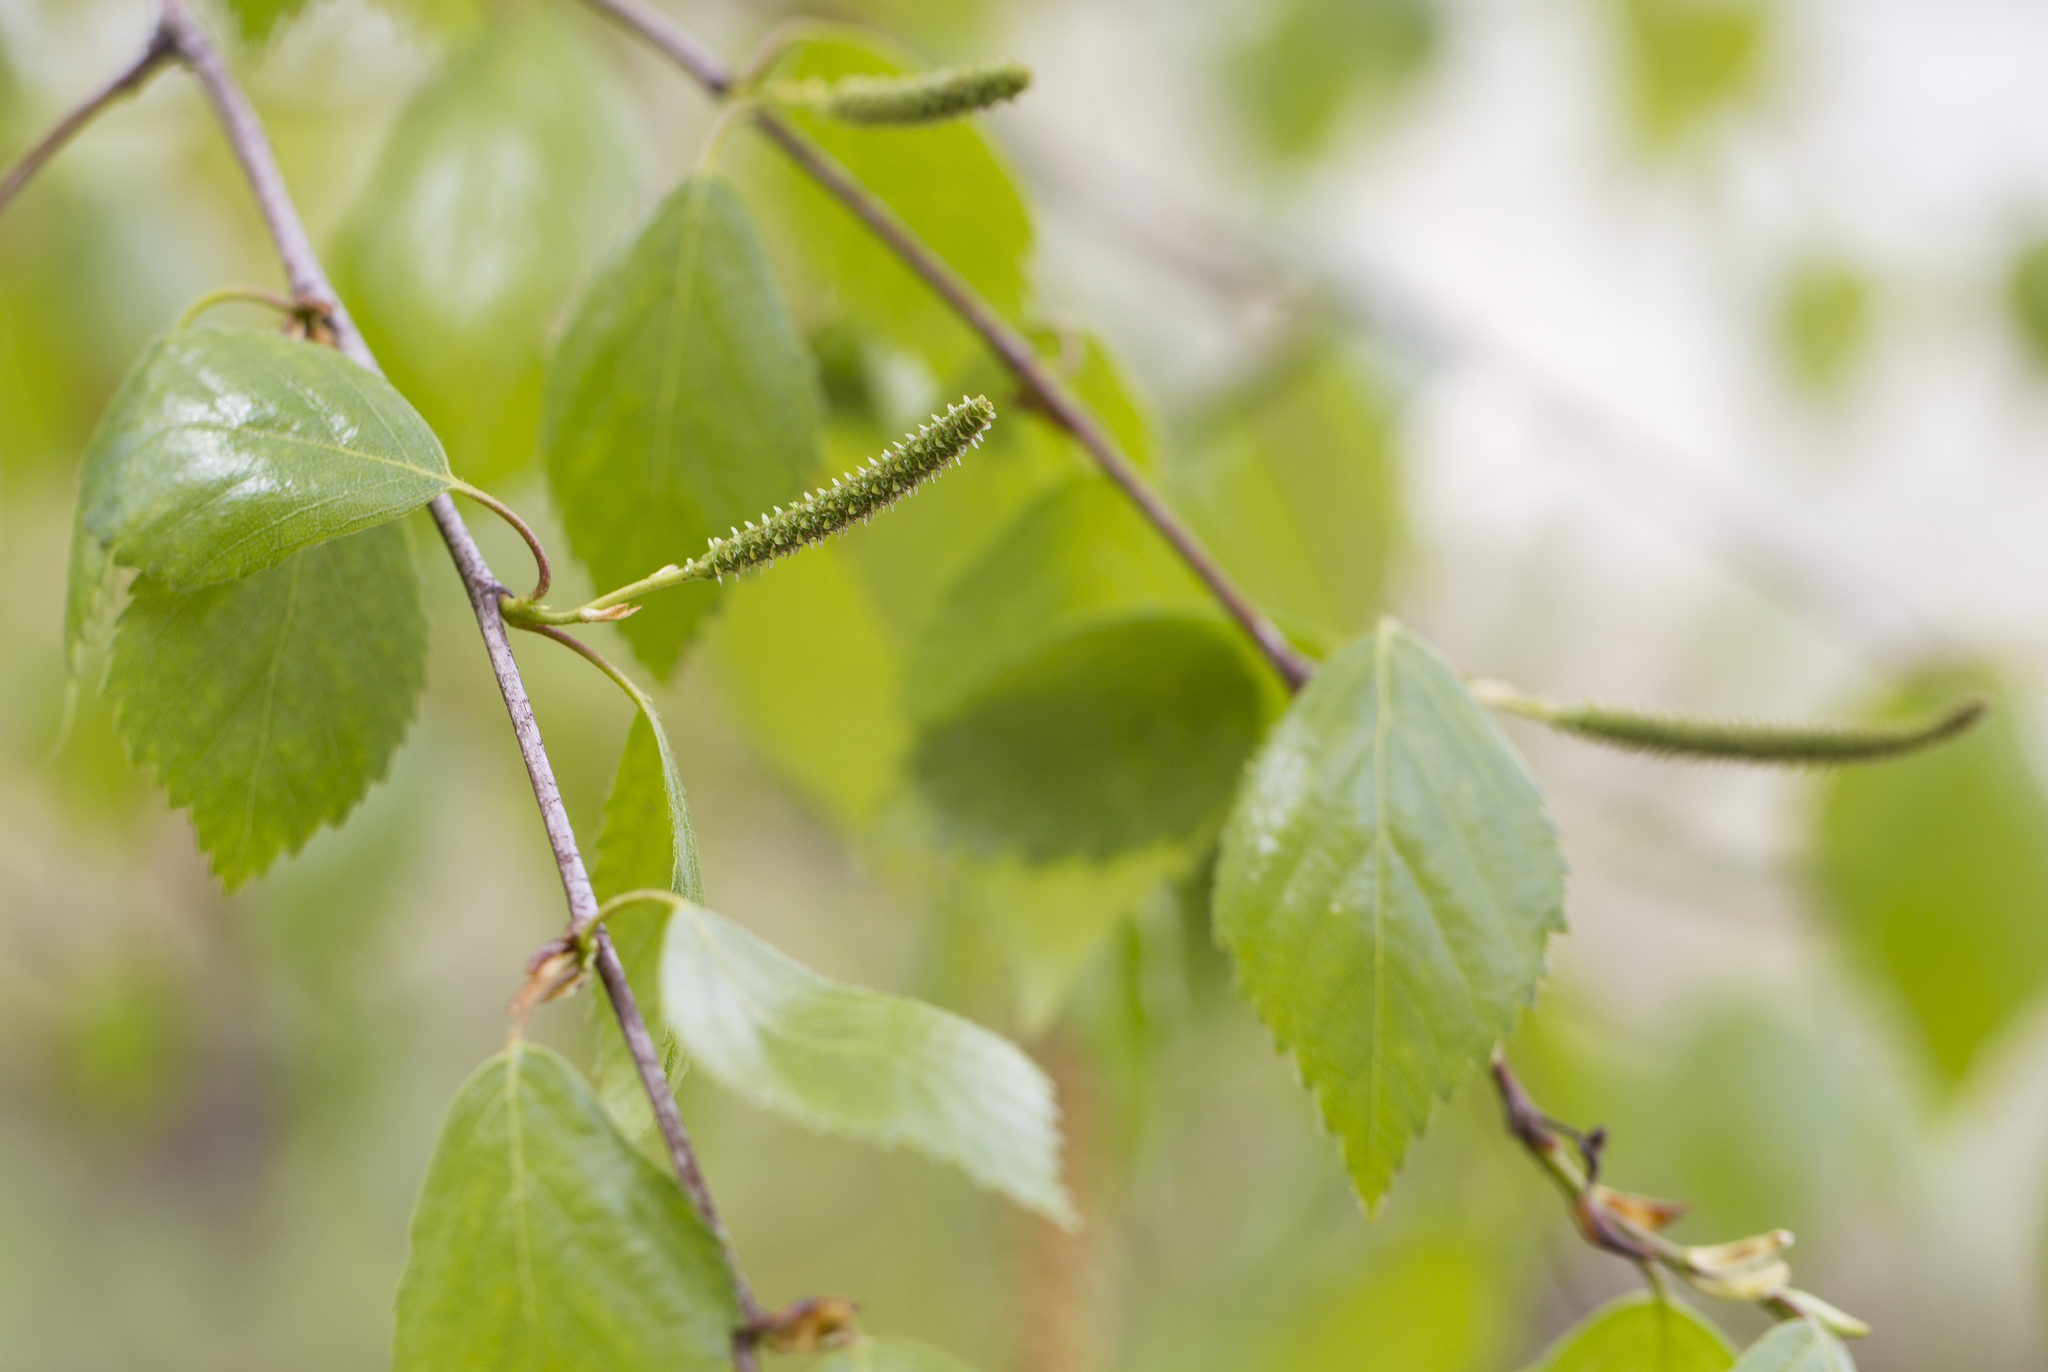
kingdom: Plantae
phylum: Tracheophyta
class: Magnoliopsida
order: Fagales
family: Betulaceae
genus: Betula
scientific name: Betula pendula
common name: Silver birch
